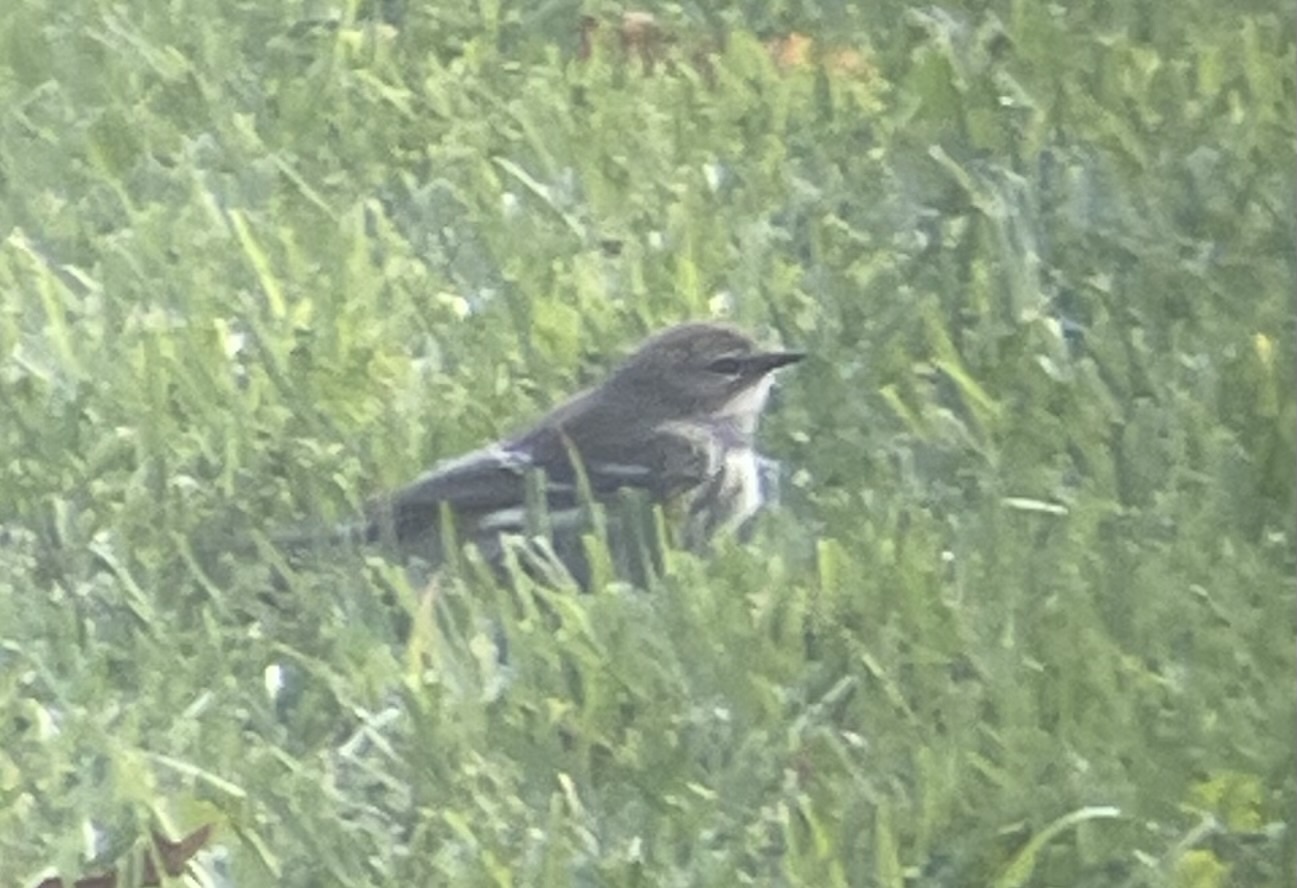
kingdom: Animalia
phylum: Chordata
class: Aves
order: Passeriformes
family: Parulidae
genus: Setophaga
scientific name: Setophaga coronata
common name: Myrtle warbler
